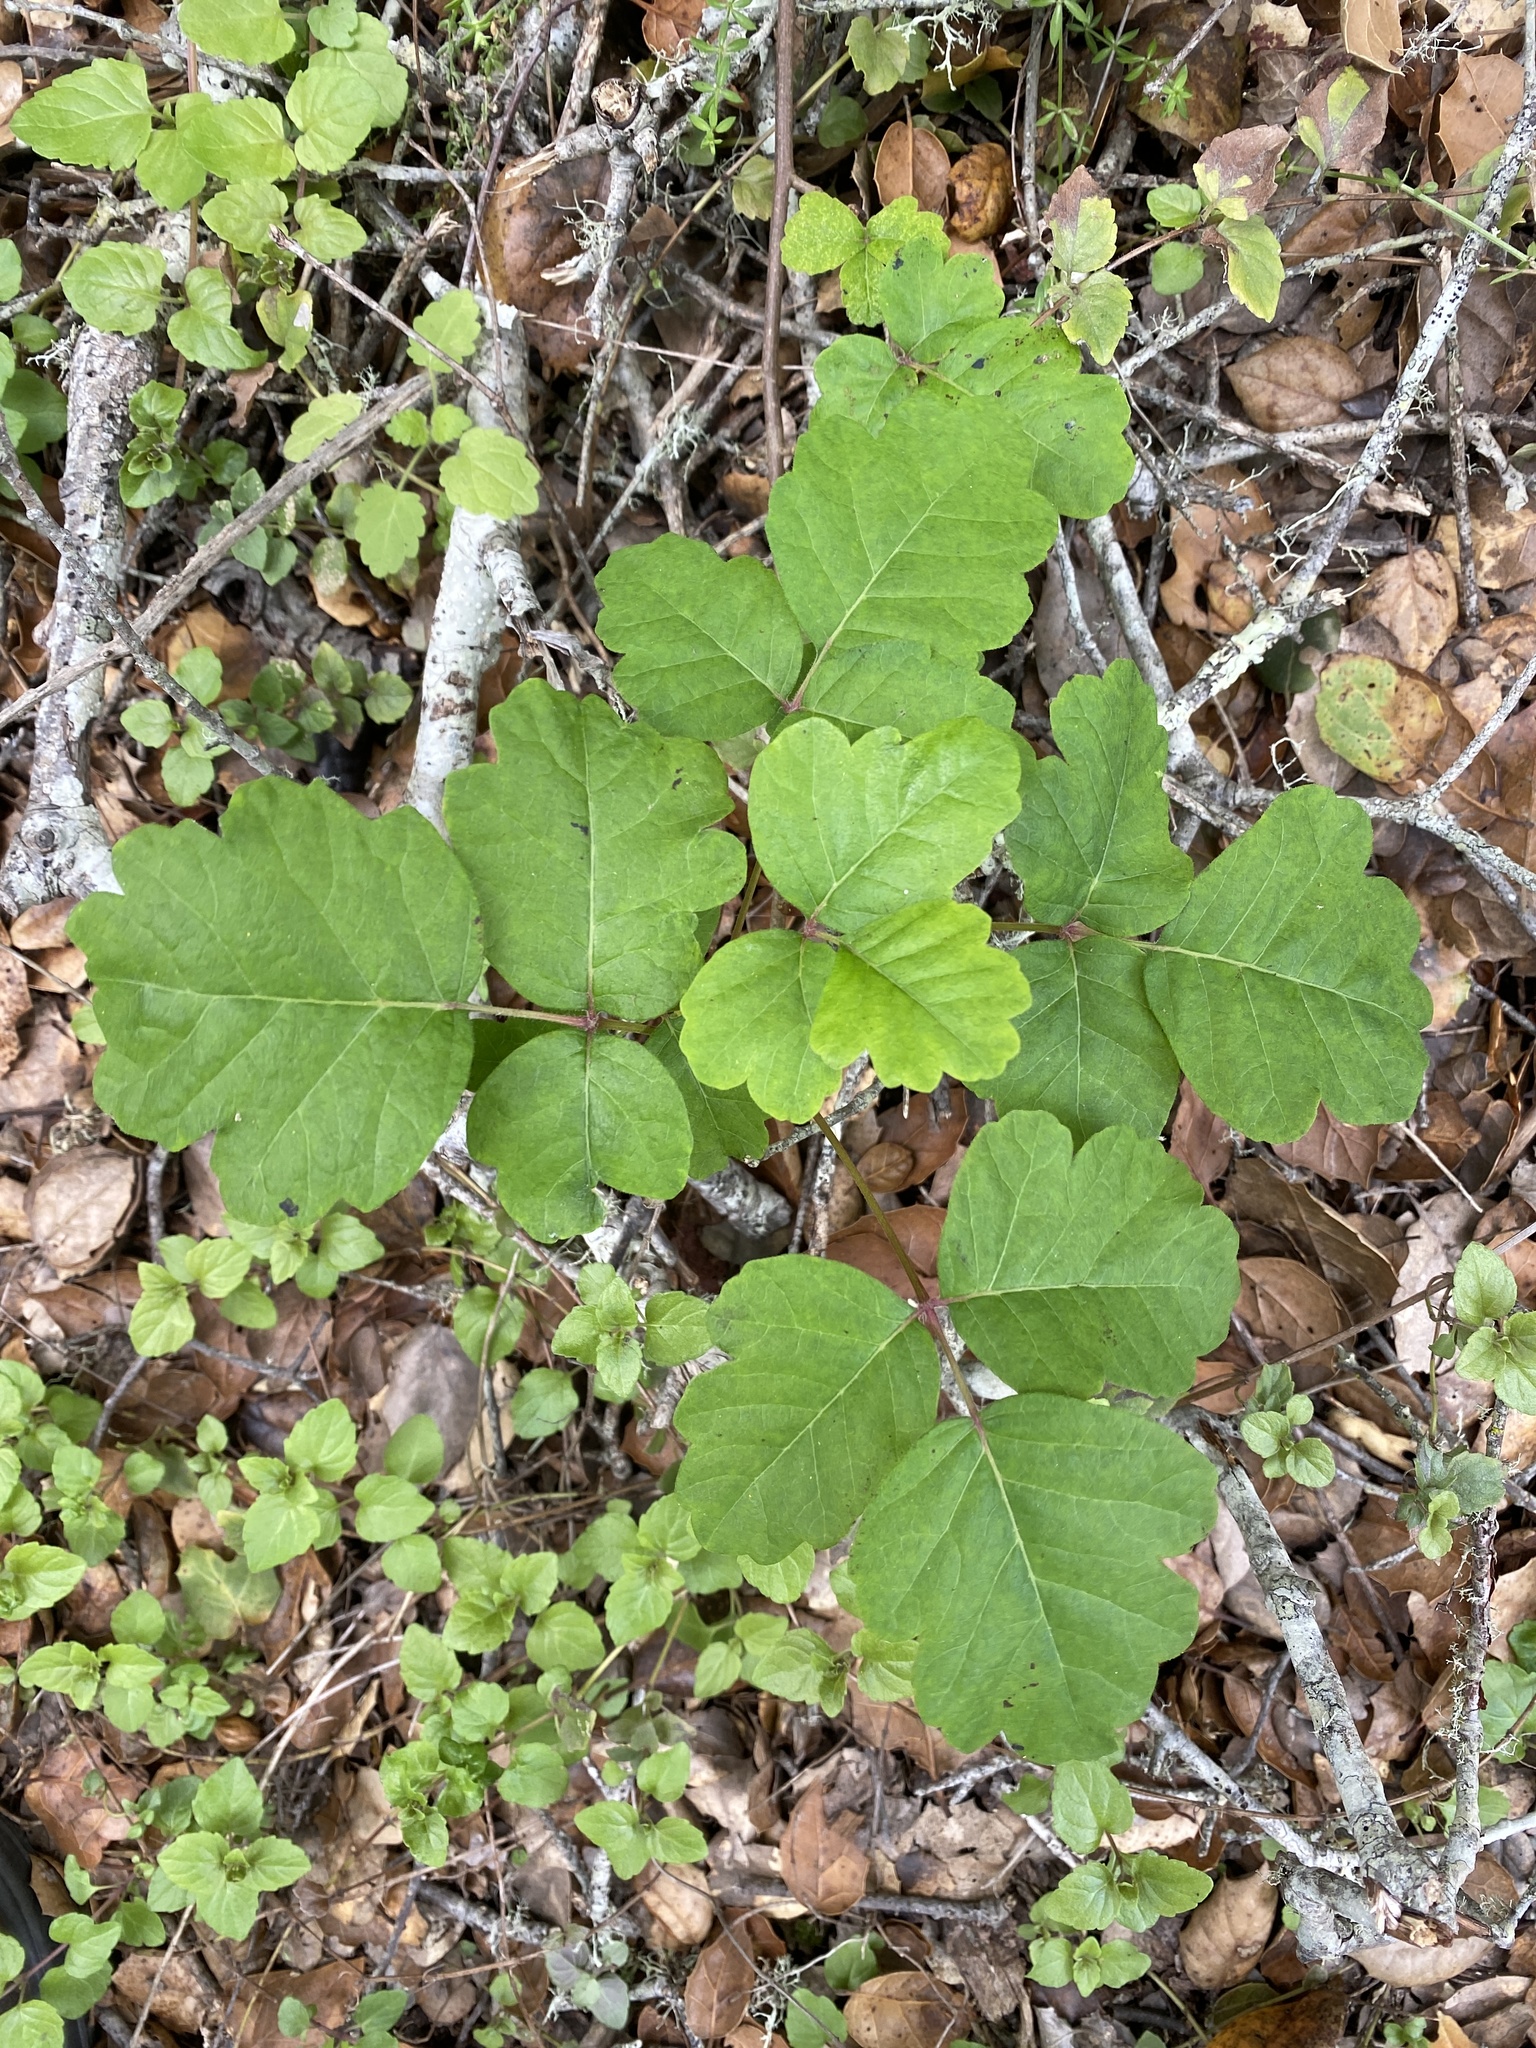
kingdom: Plantae
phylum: Tracheophyta
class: Magnoliopsida
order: Sapindales
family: Anacardiaceae
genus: Toxicodendron
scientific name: Toxicodendron diversilobum
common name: Pacific poison-oak
